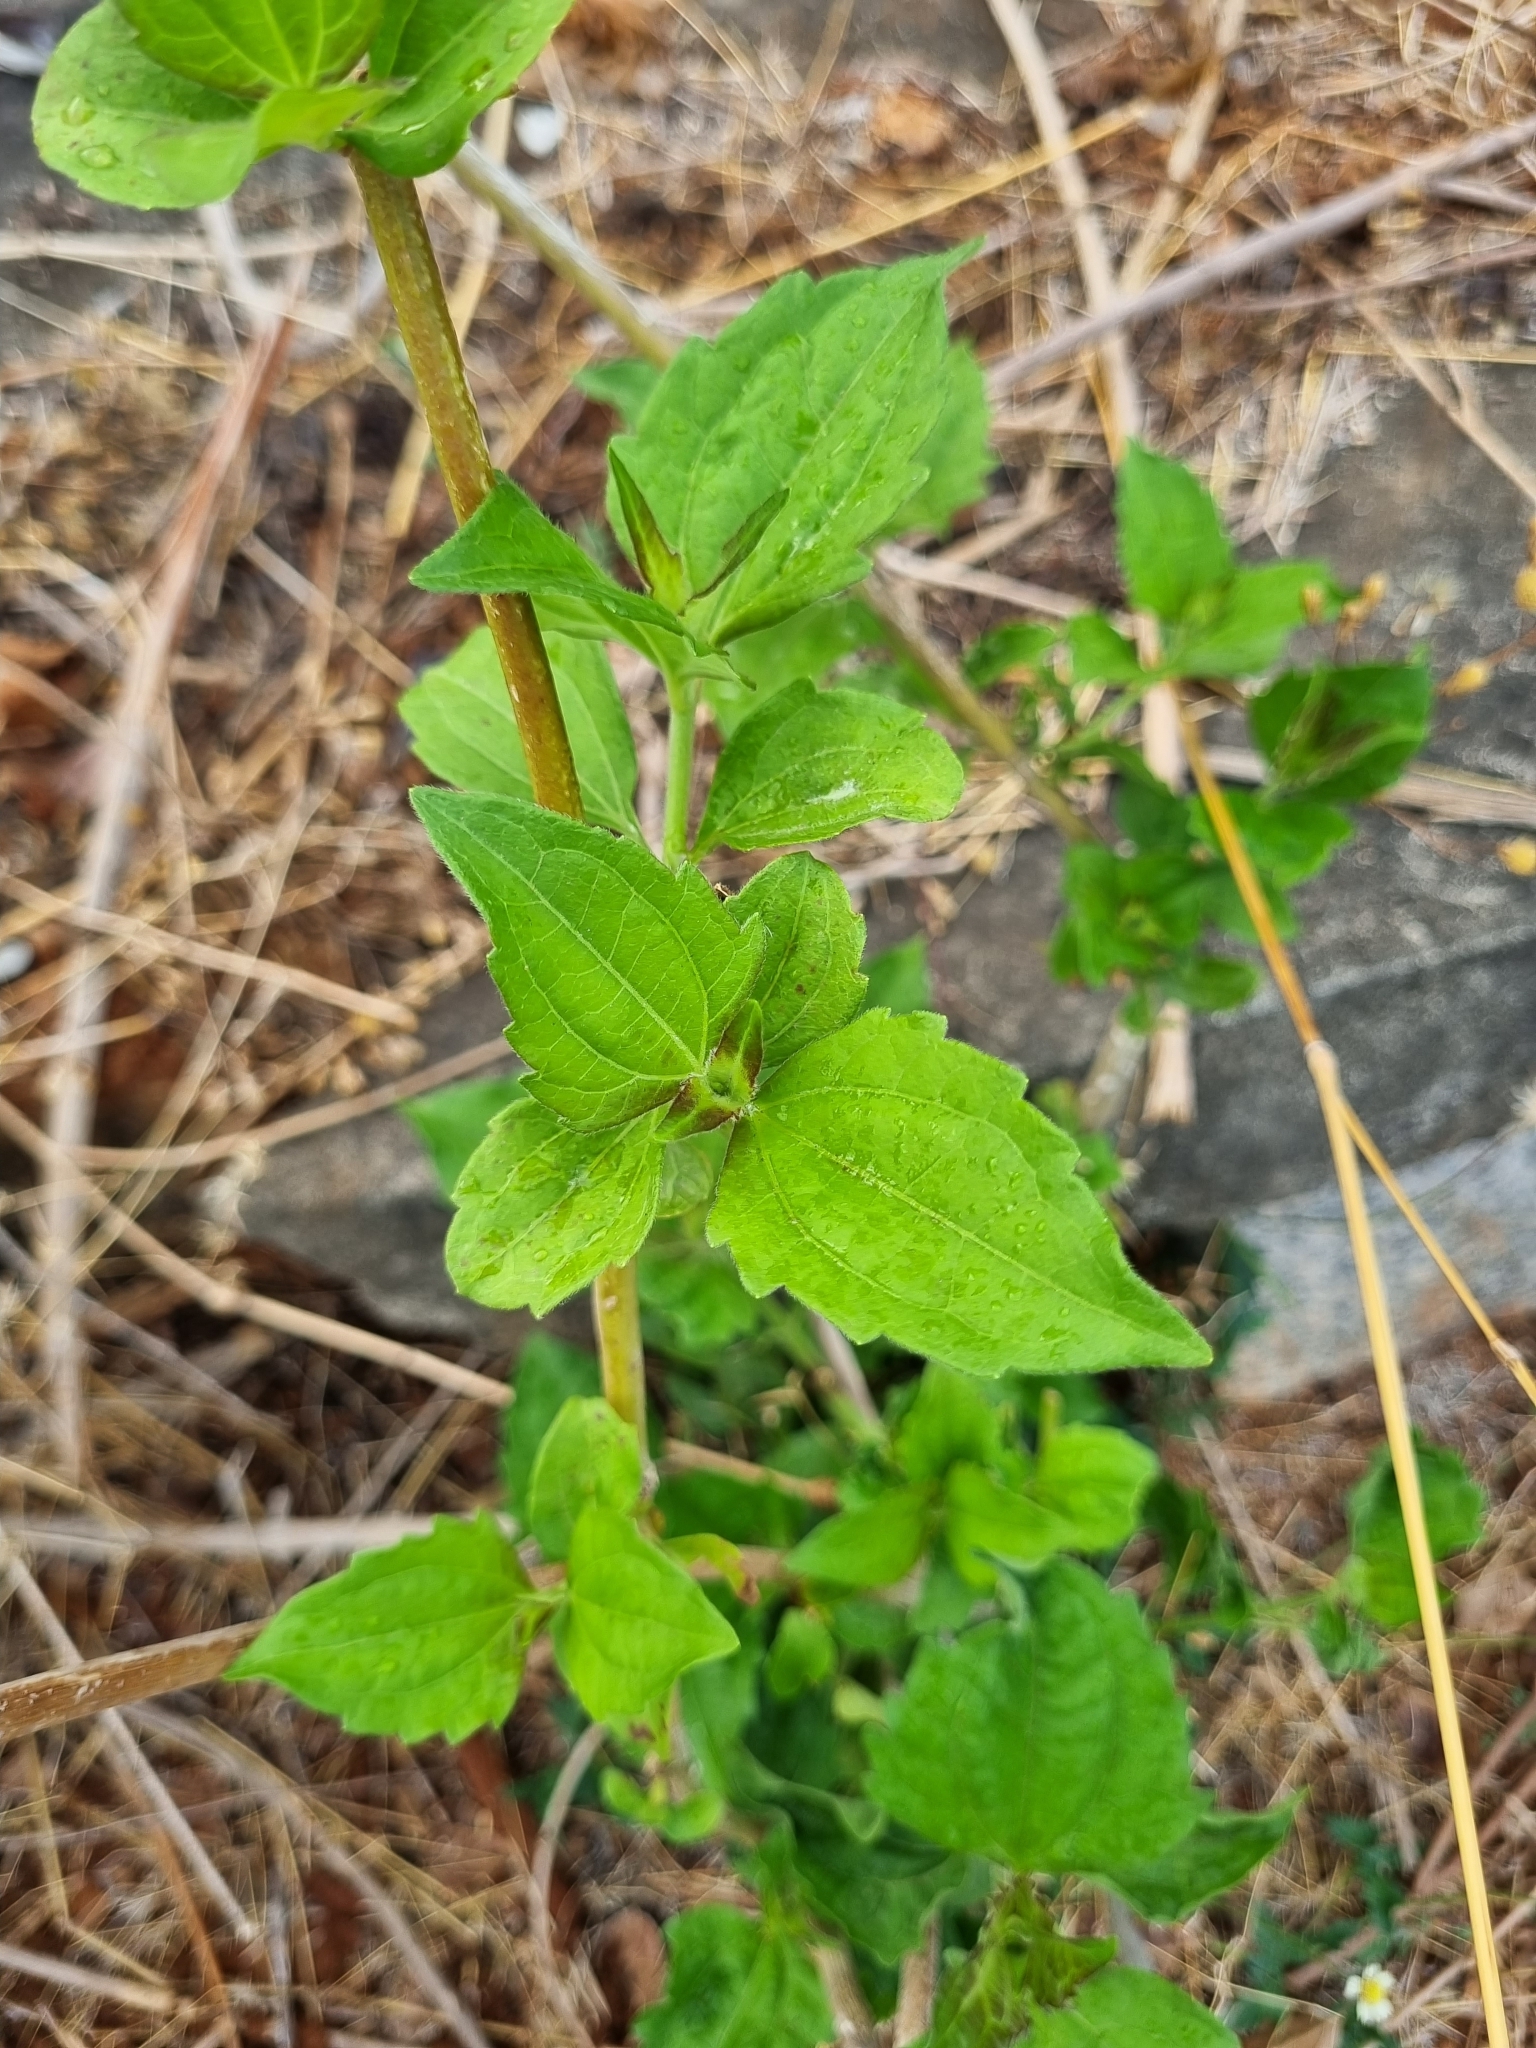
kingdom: Plantae
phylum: Tracheophyta
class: Magnoliopsida
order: Asterales
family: Asteraceae
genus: Chromolaena
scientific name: Chromolaena odorata
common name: Siamweed
